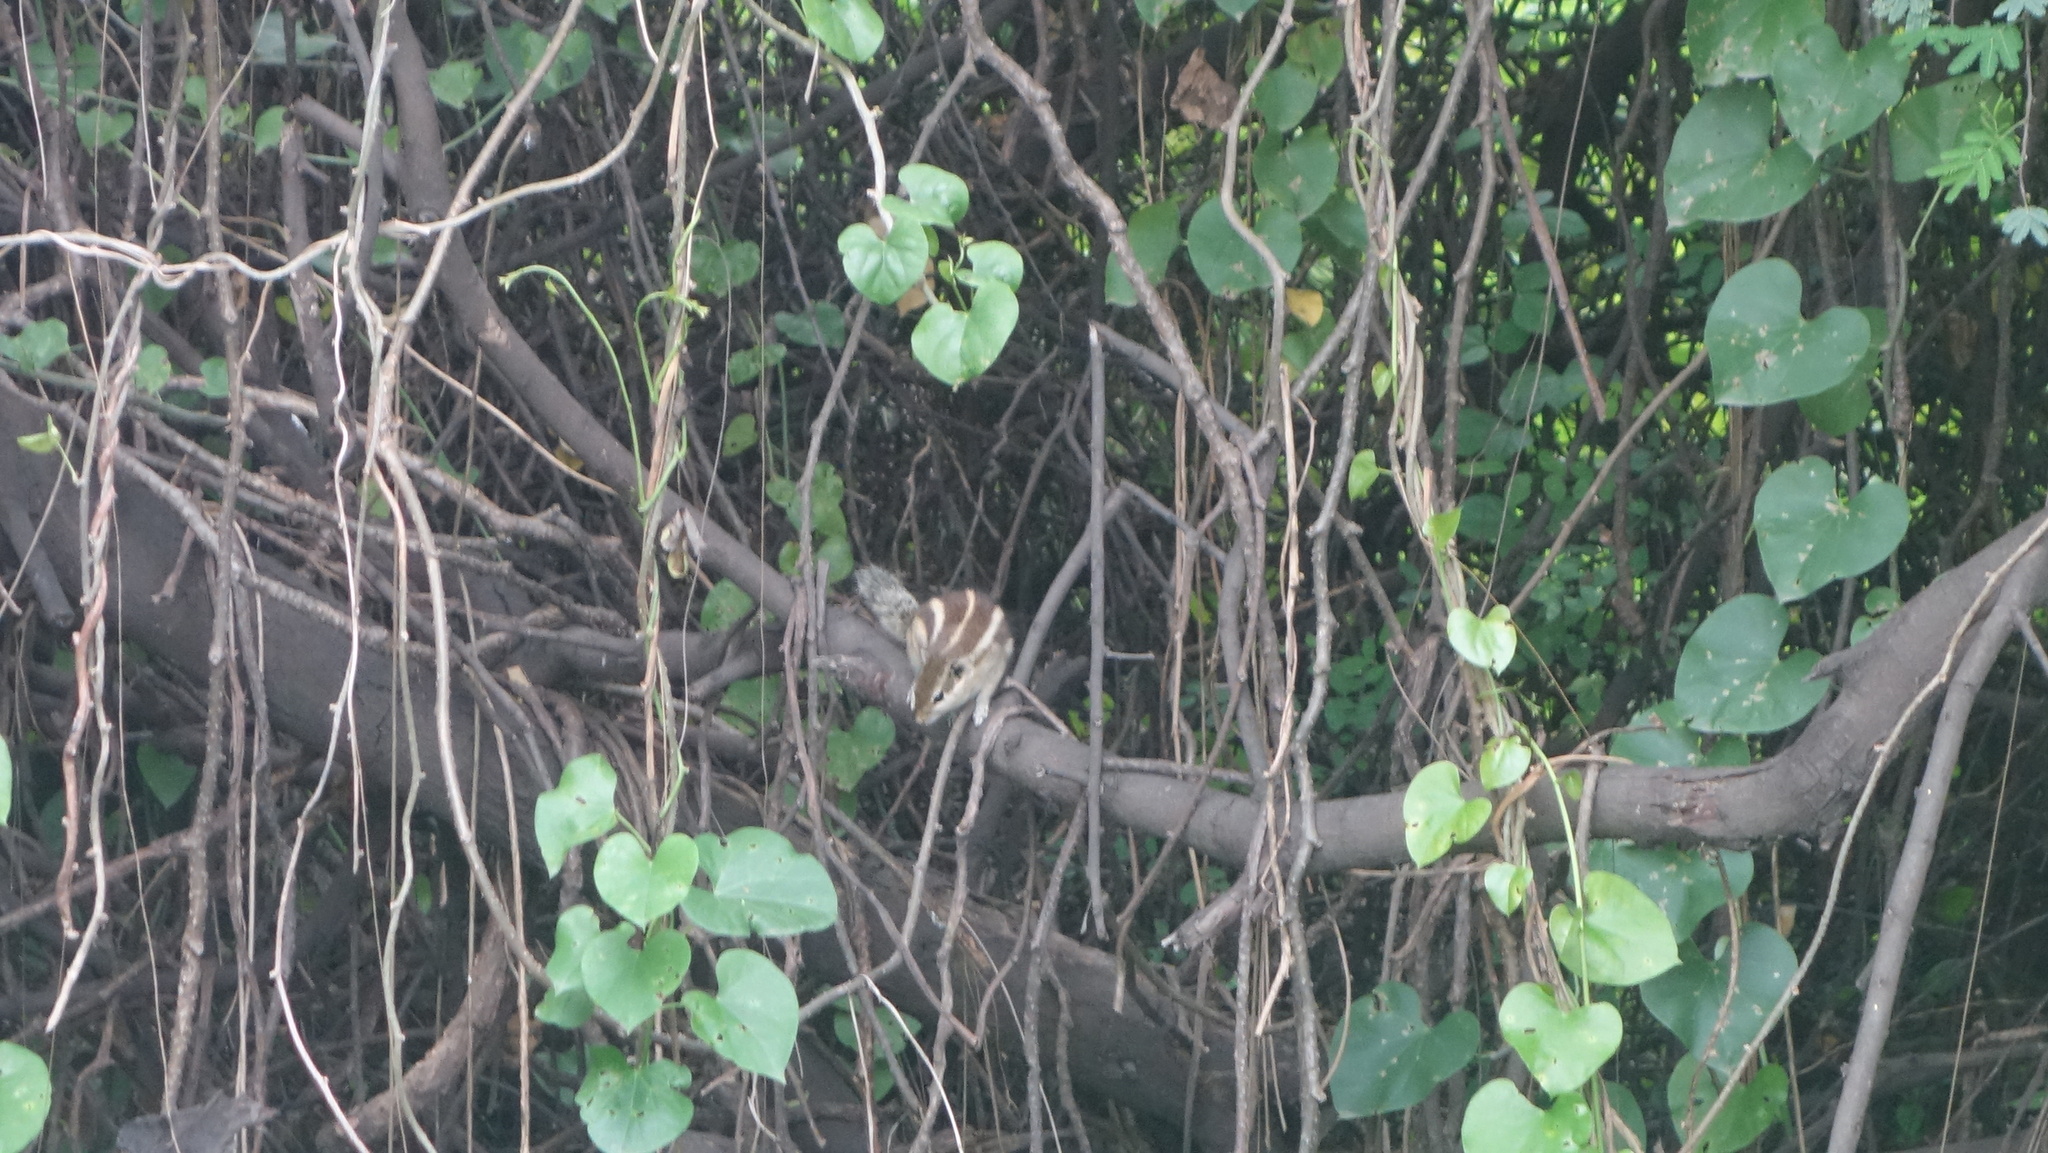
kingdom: Animalia
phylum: Chordata
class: Mammalia
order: Rodentia
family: Sciuridae
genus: Funambulus
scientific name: Funambulus pennantii
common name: Northern palm squirrel
